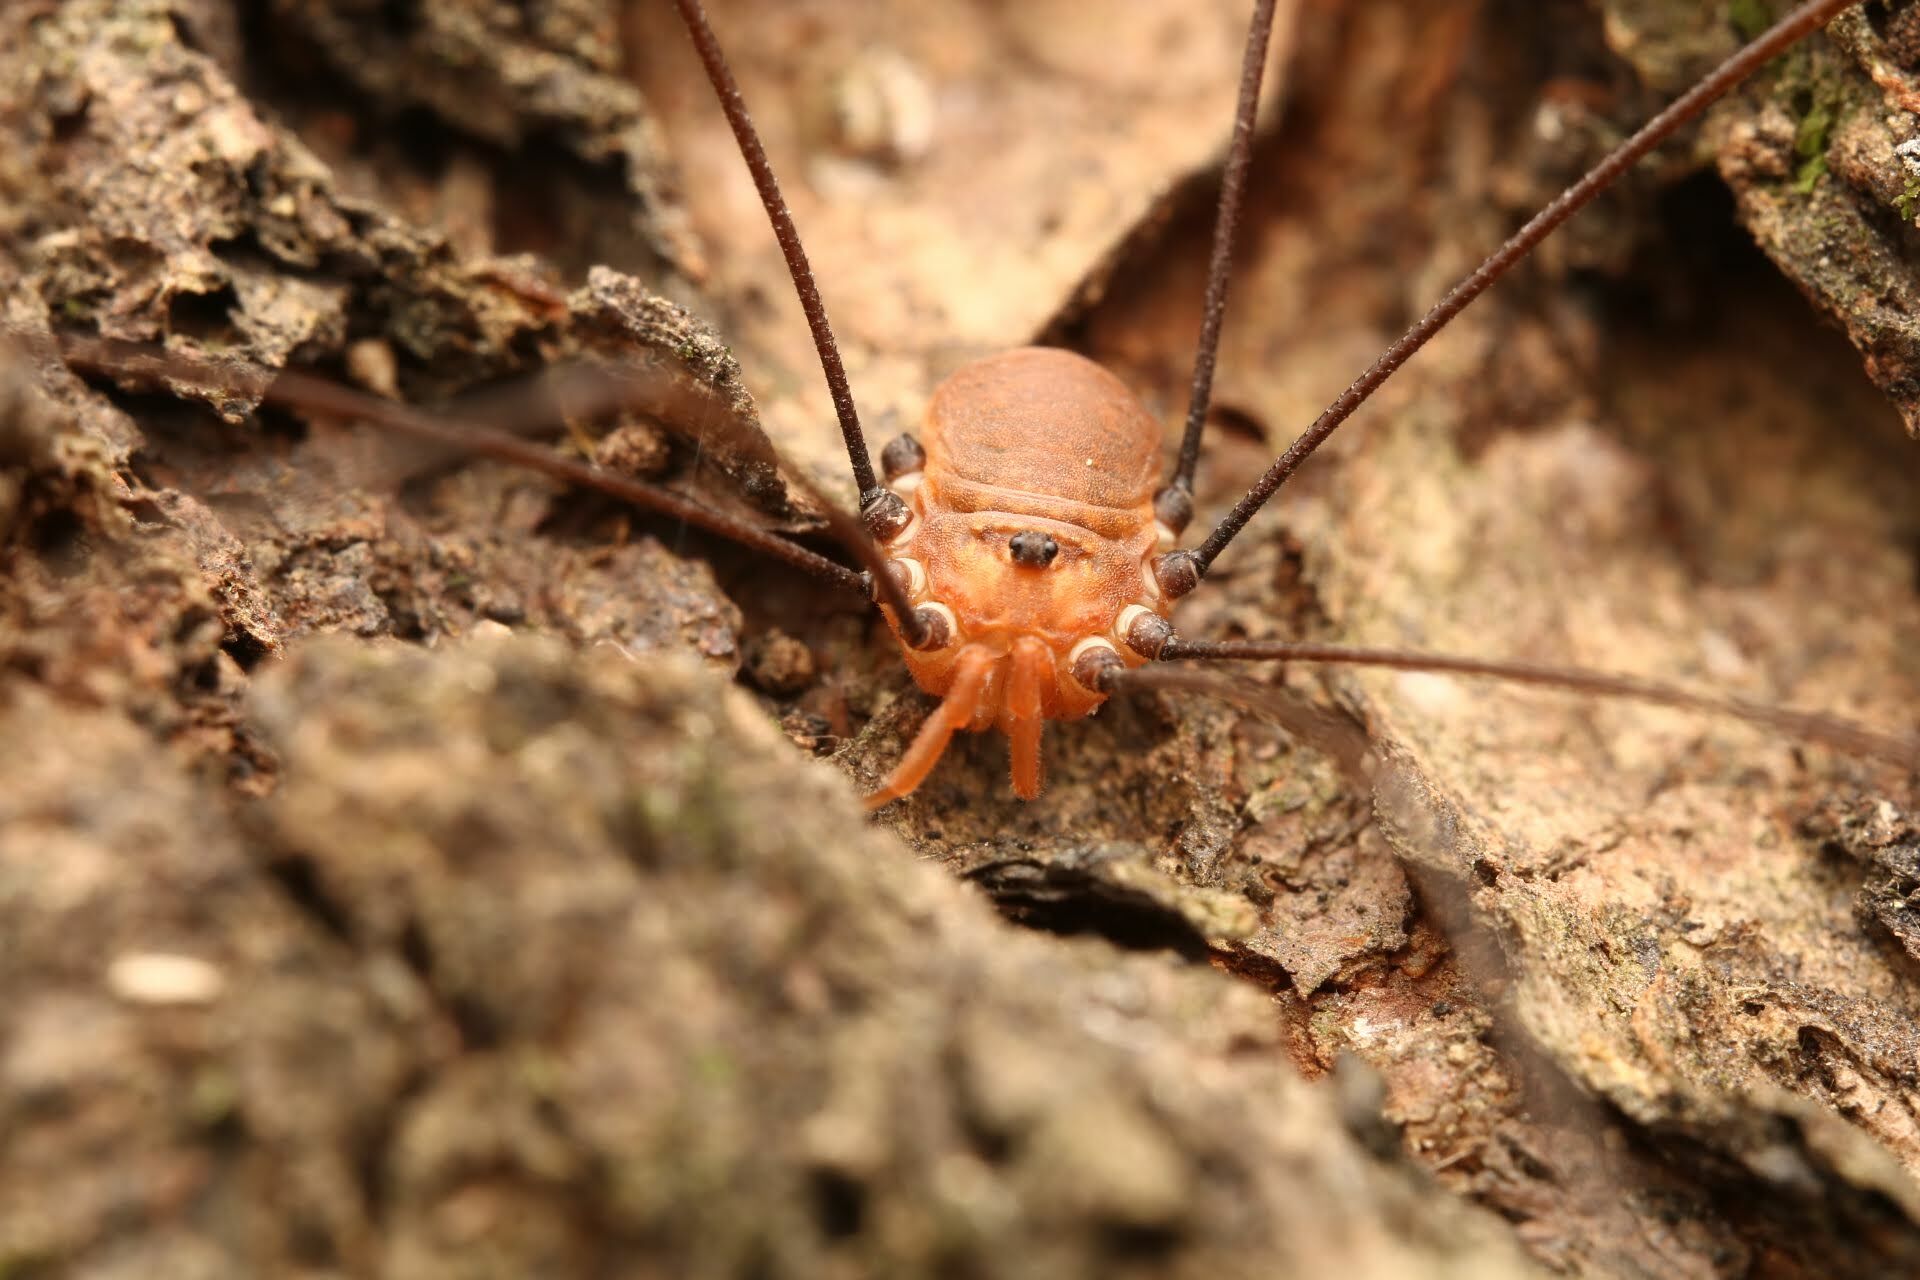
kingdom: Animalia
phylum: Arthropoda
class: Arachnida
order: Opiliones
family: Sclerosomatidae
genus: Leiobunum
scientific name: Leiobunum uxorium
